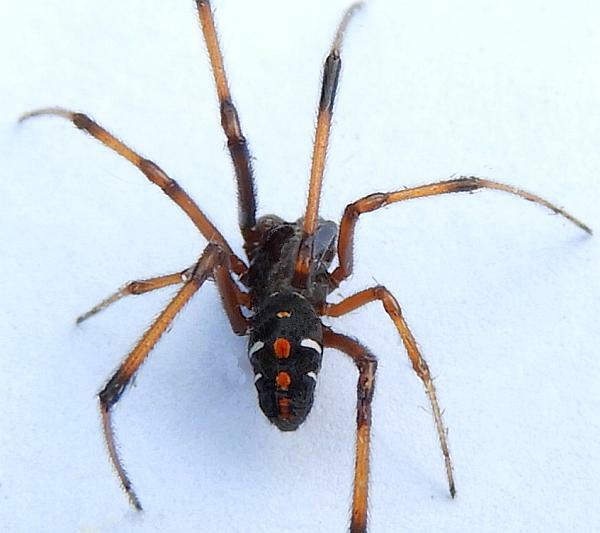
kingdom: Animalia
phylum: Arthropoda
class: Arachnida
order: Araneae
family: Theridiidae
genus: Latrodectus
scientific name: Latrodectus variolus
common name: Northern black widow
